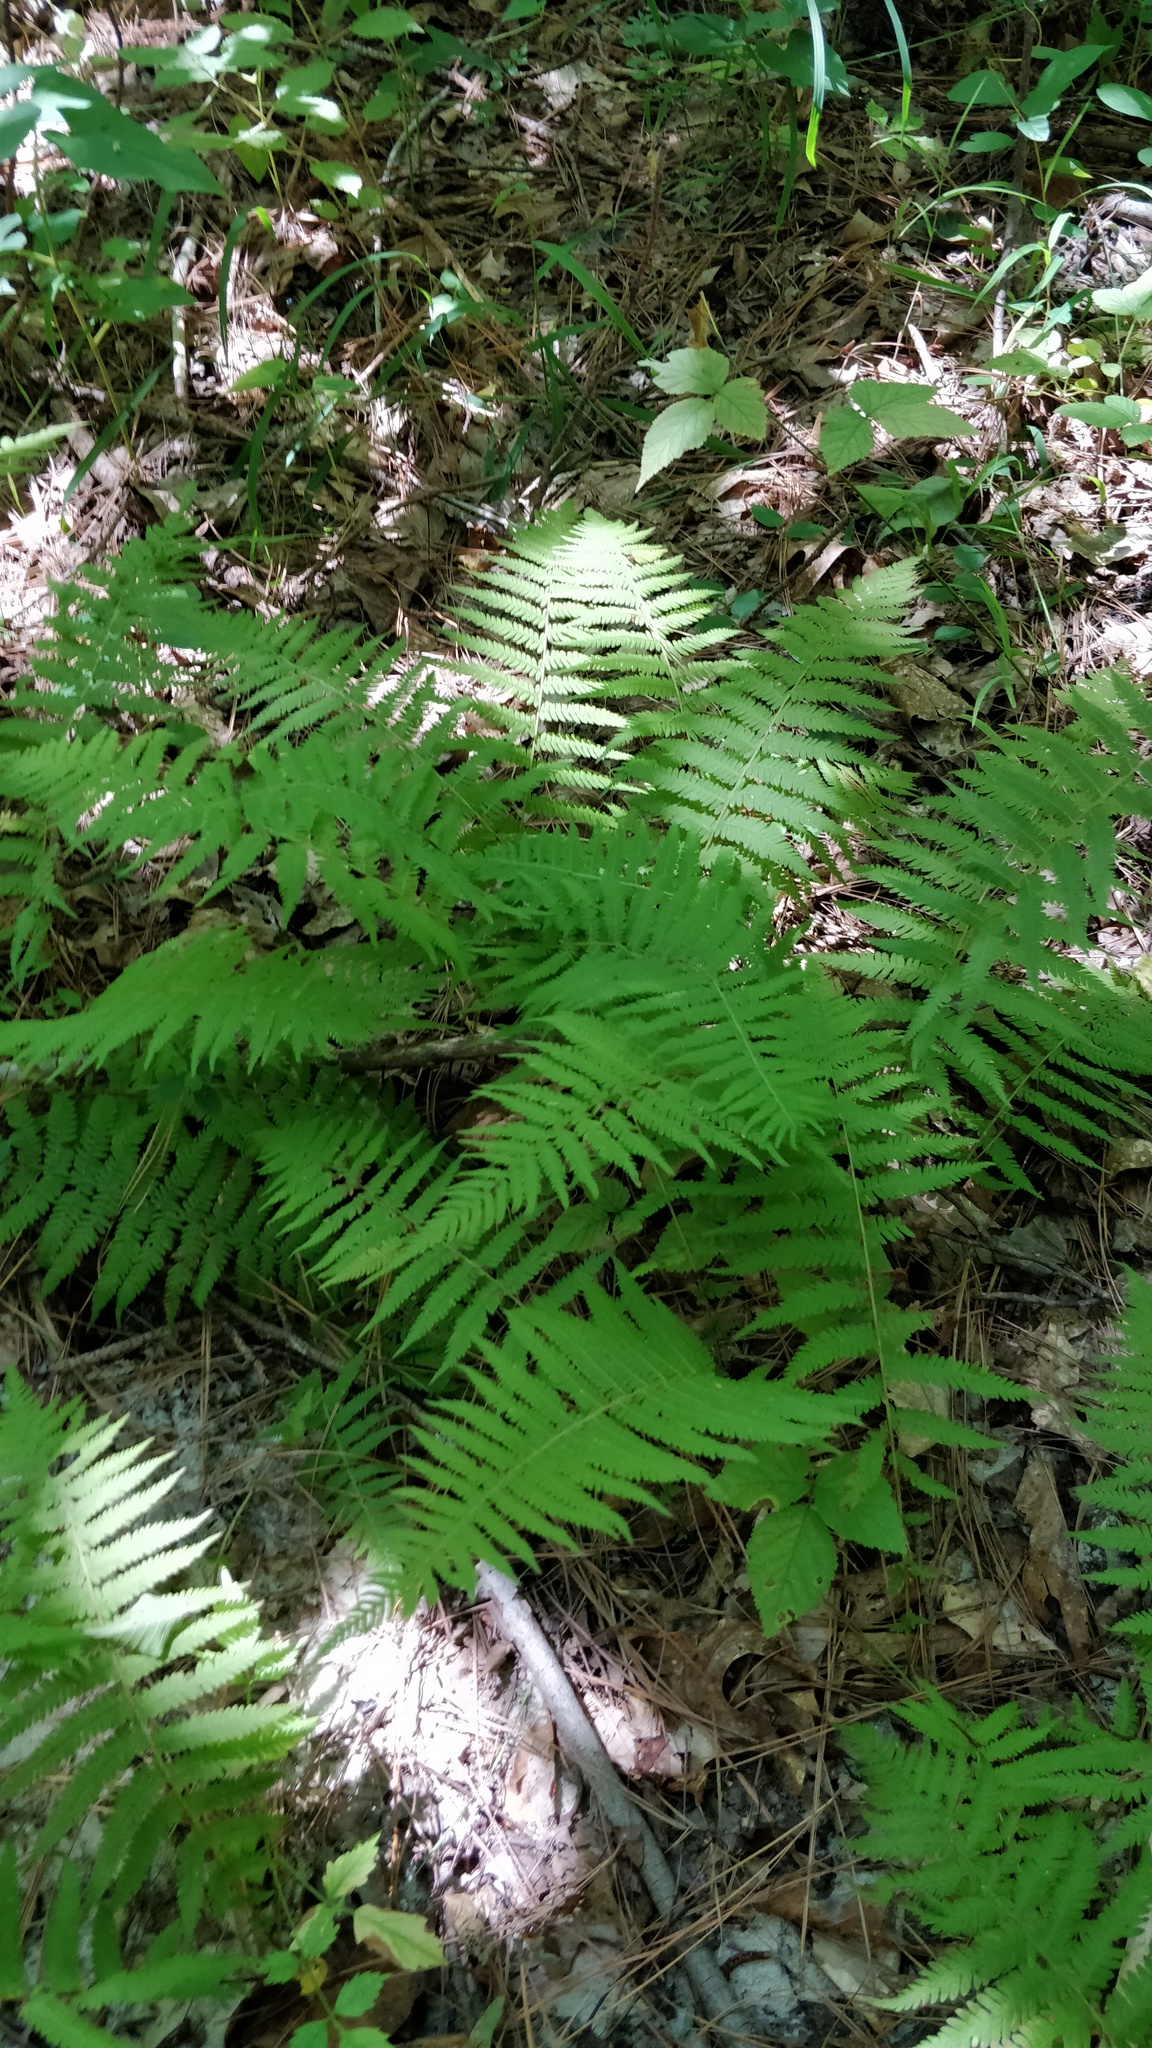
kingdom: Plantae
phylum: Tracheophyta
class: Polypodiopsida
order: Polypodiales
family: Thelypteridaceae
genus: Amauropelta
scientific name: Amauropelta noveboracensis
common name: New york fern
